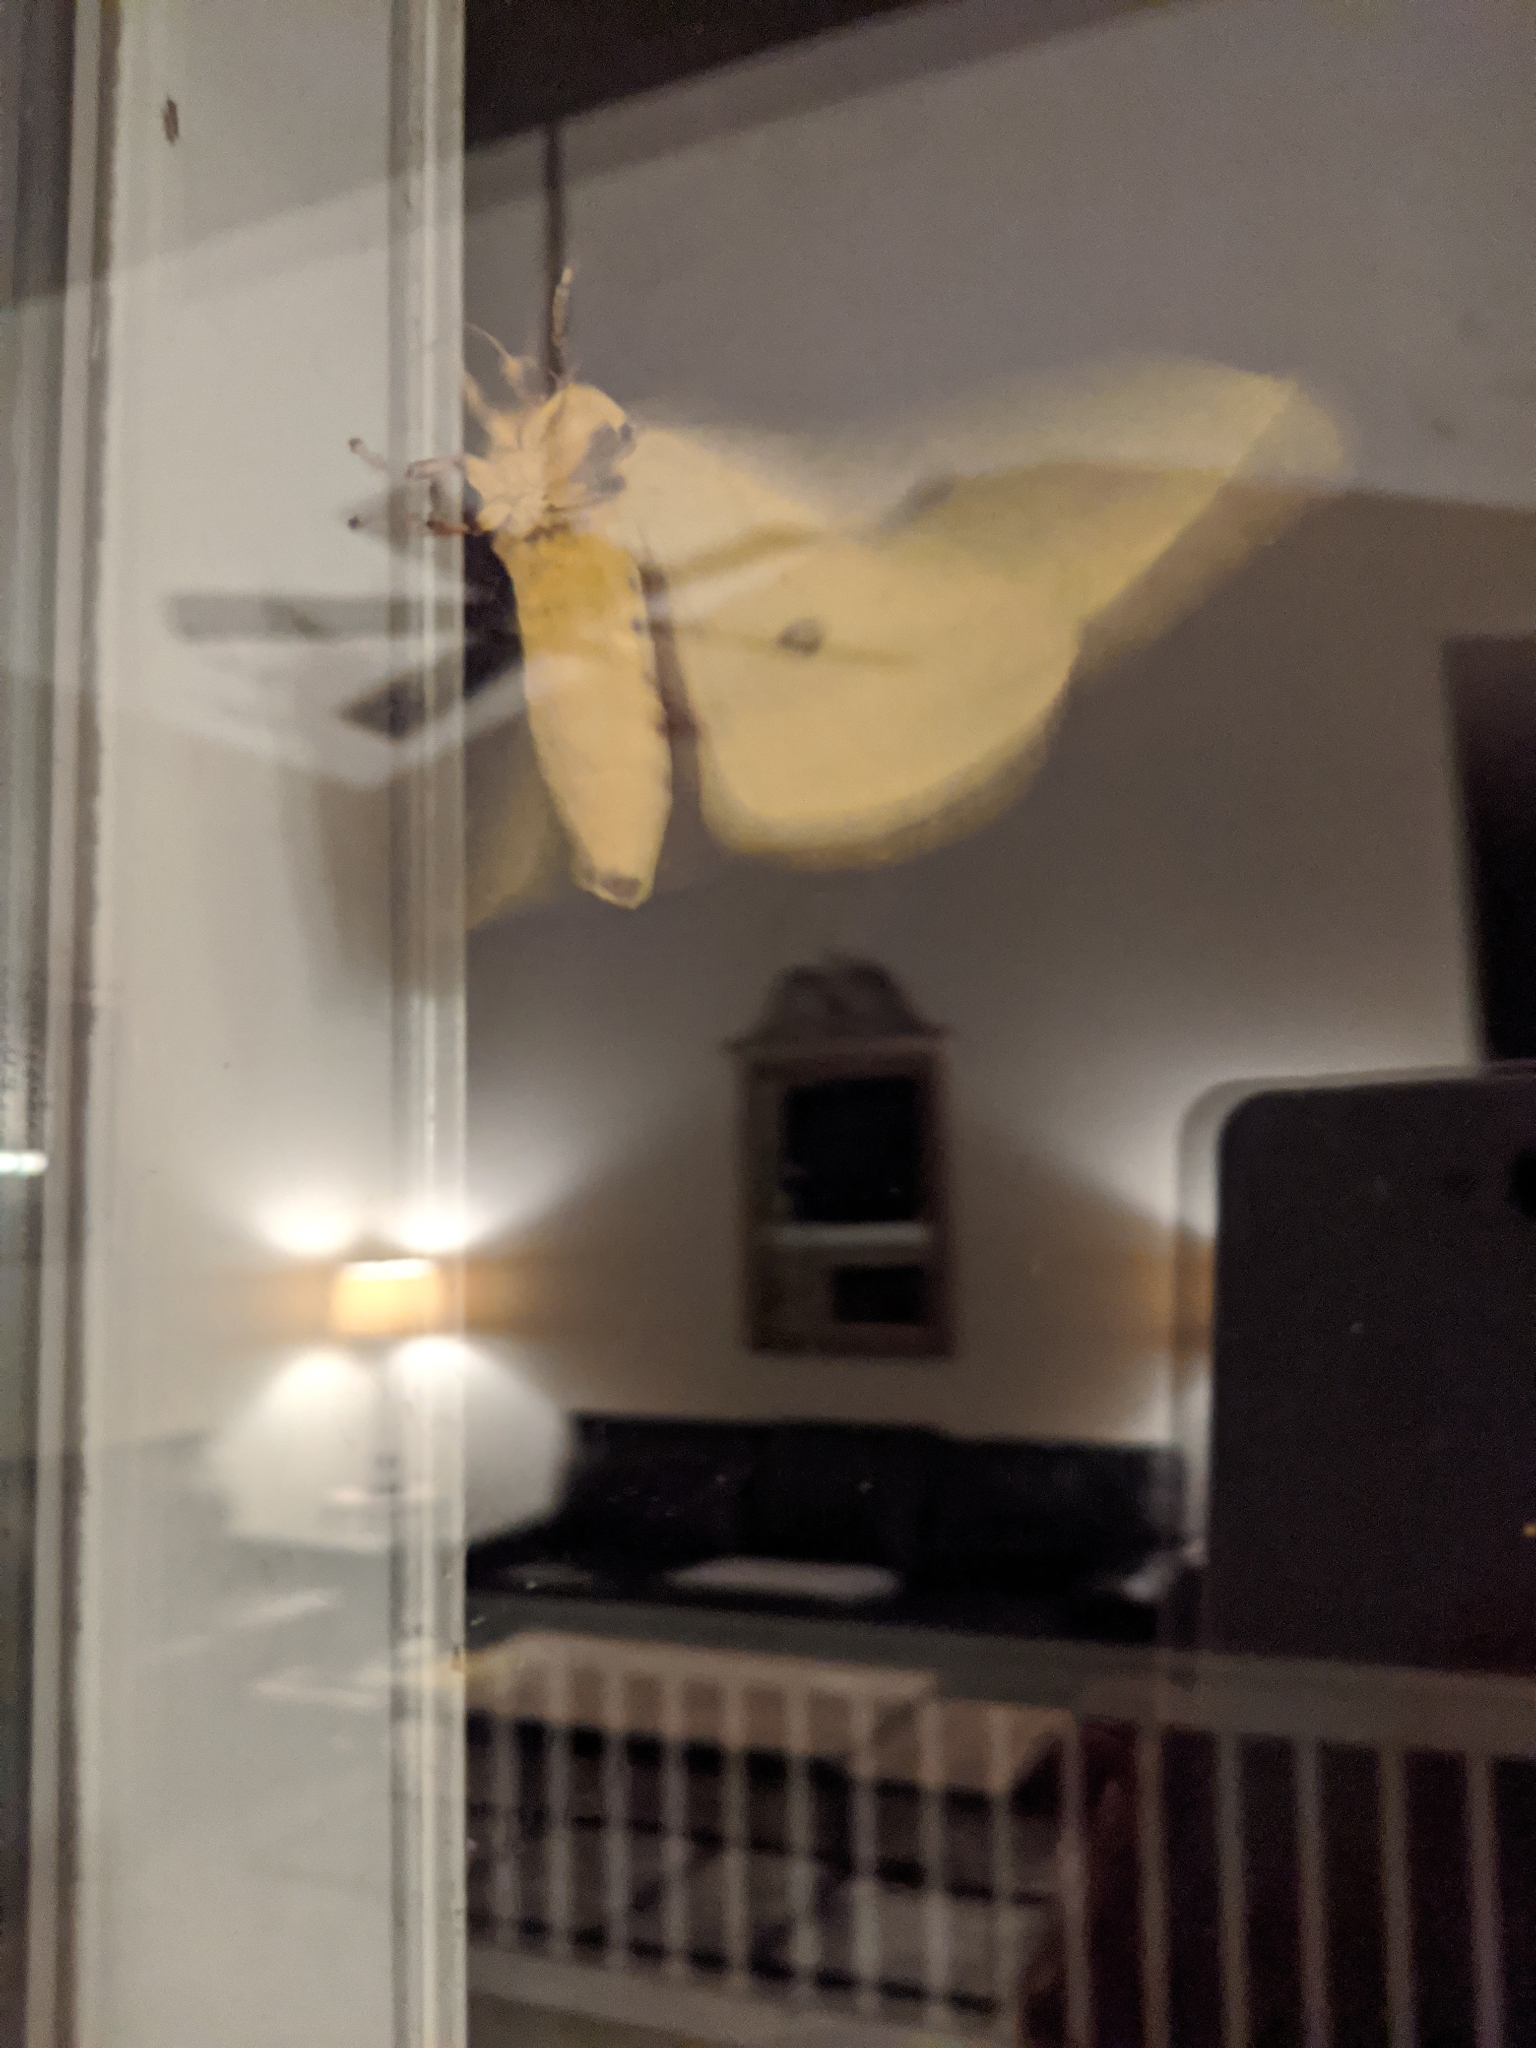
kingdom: Animalia
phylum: Arthropoda
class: Insecta
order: Lepidoptera
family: Saturniidae
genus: Eacles
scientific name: Eacles imperialis
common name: Imperial moth
